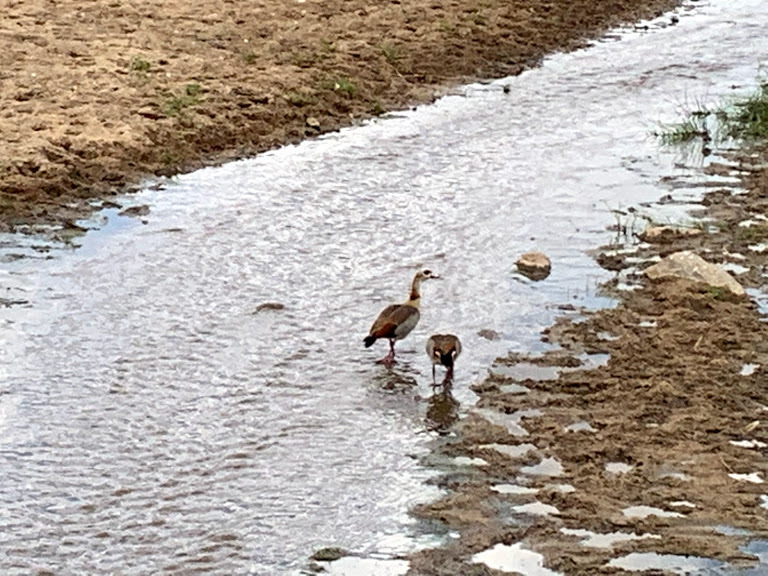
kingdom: Animalia
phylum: Chordata
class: Aves
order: Anseriformes
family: Anatidae
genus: Alopochen
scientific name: Alopochen aegyptiaca
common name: Egyptian goose
